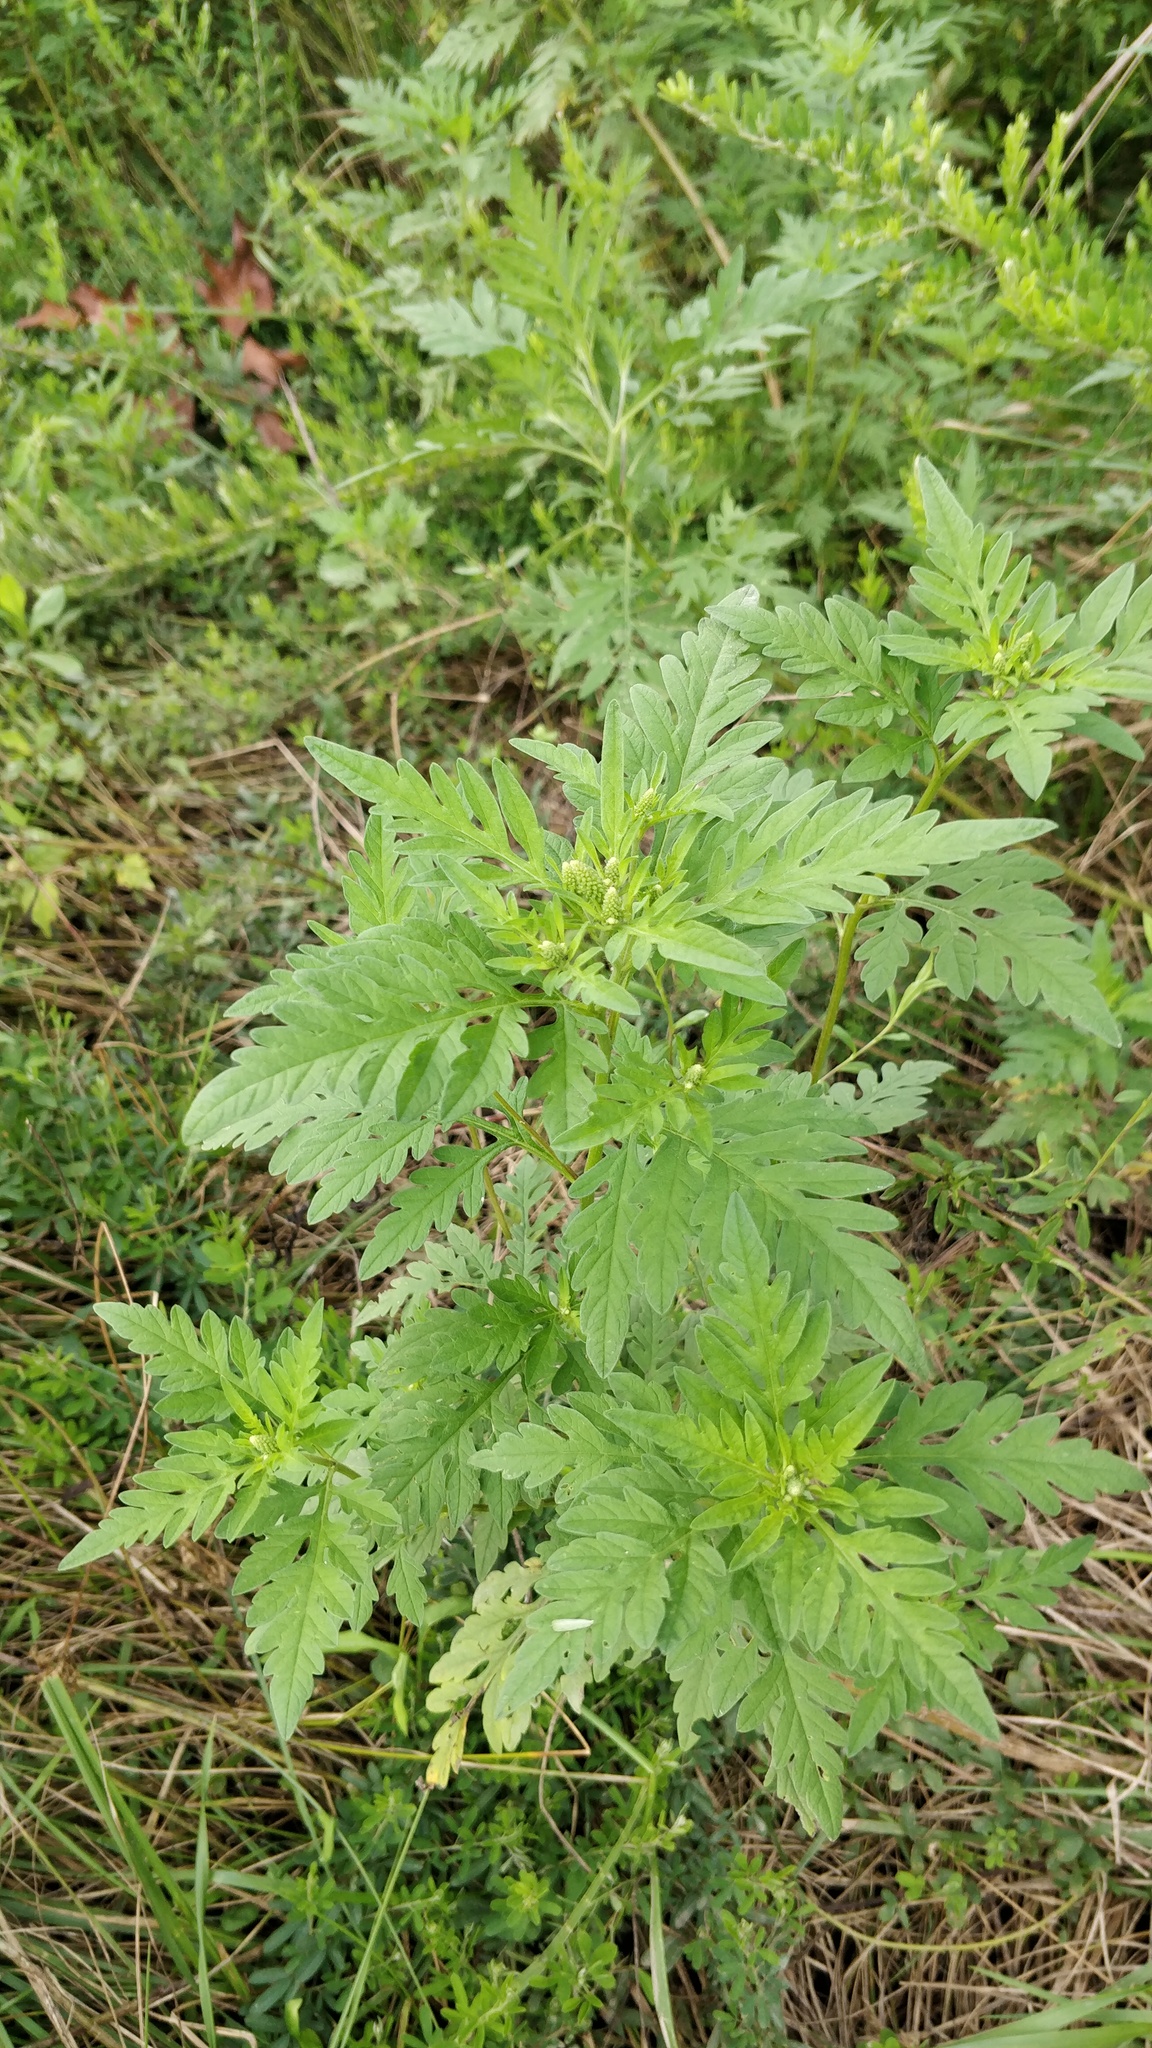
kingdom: Plantae
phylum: Tracheophyta
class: Magnoliopsida
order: Asterales
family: Asteraceae
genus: Ambrosia
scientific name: Ambrosia artemisiifolia
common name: Annual ragweed
